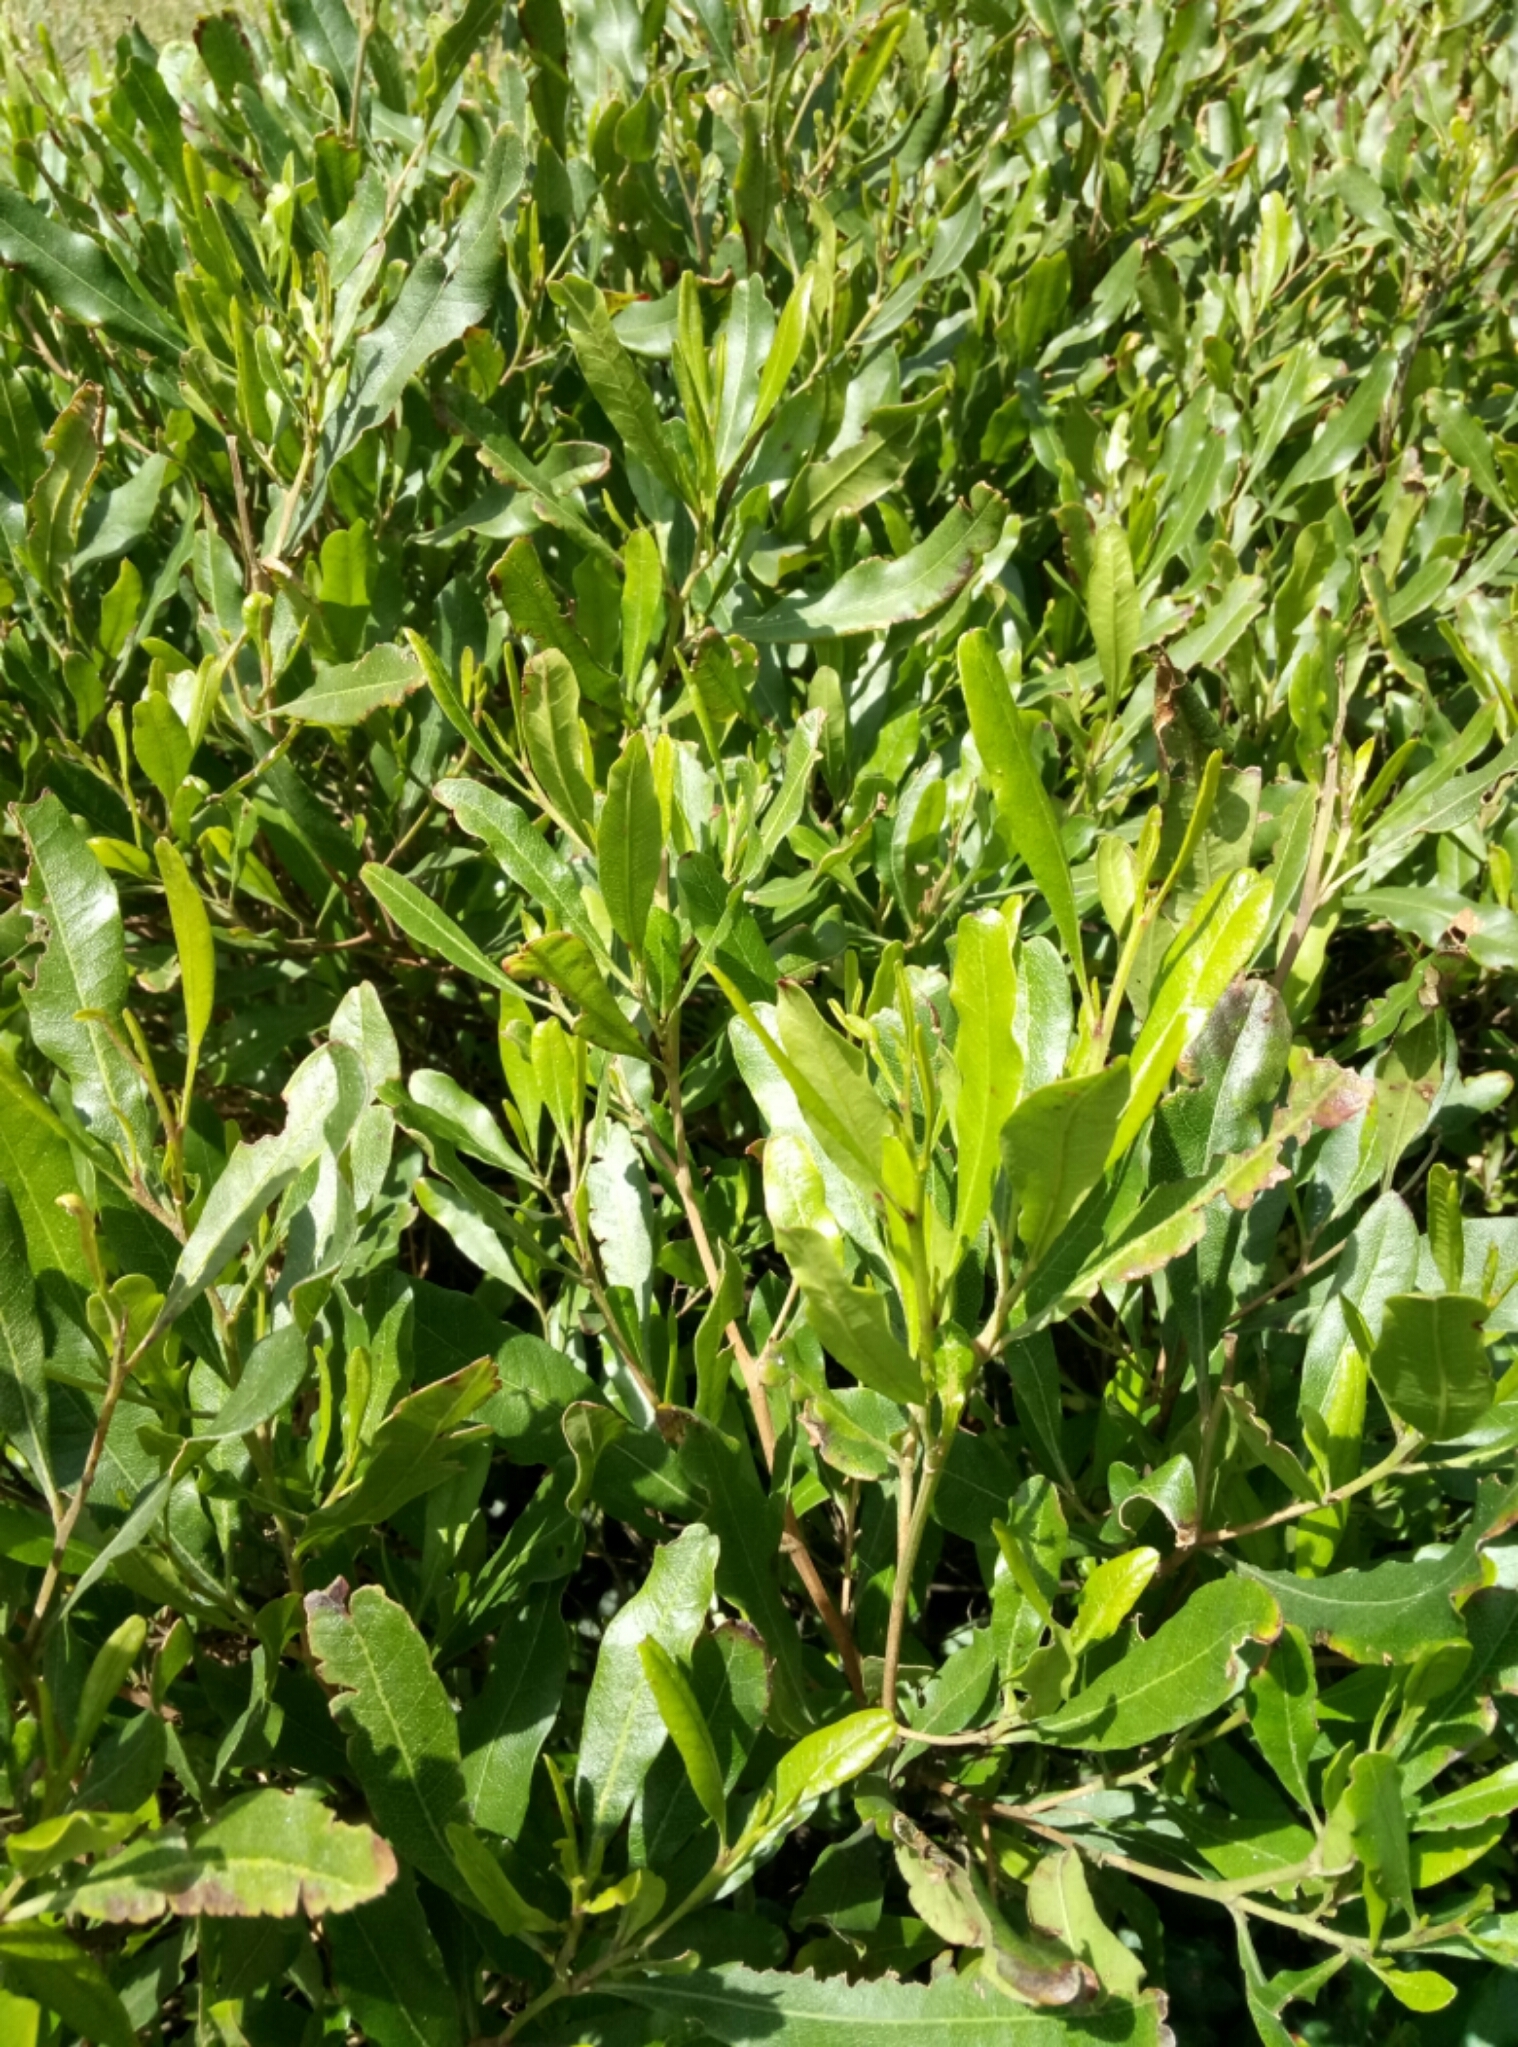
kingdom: Plantae
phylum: Tracheophyta
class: Magnoliopsida
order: Sapindales
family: Sapindaceae
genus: Dodonaea
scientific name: Dodonaea viscosa
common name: Hopbush
